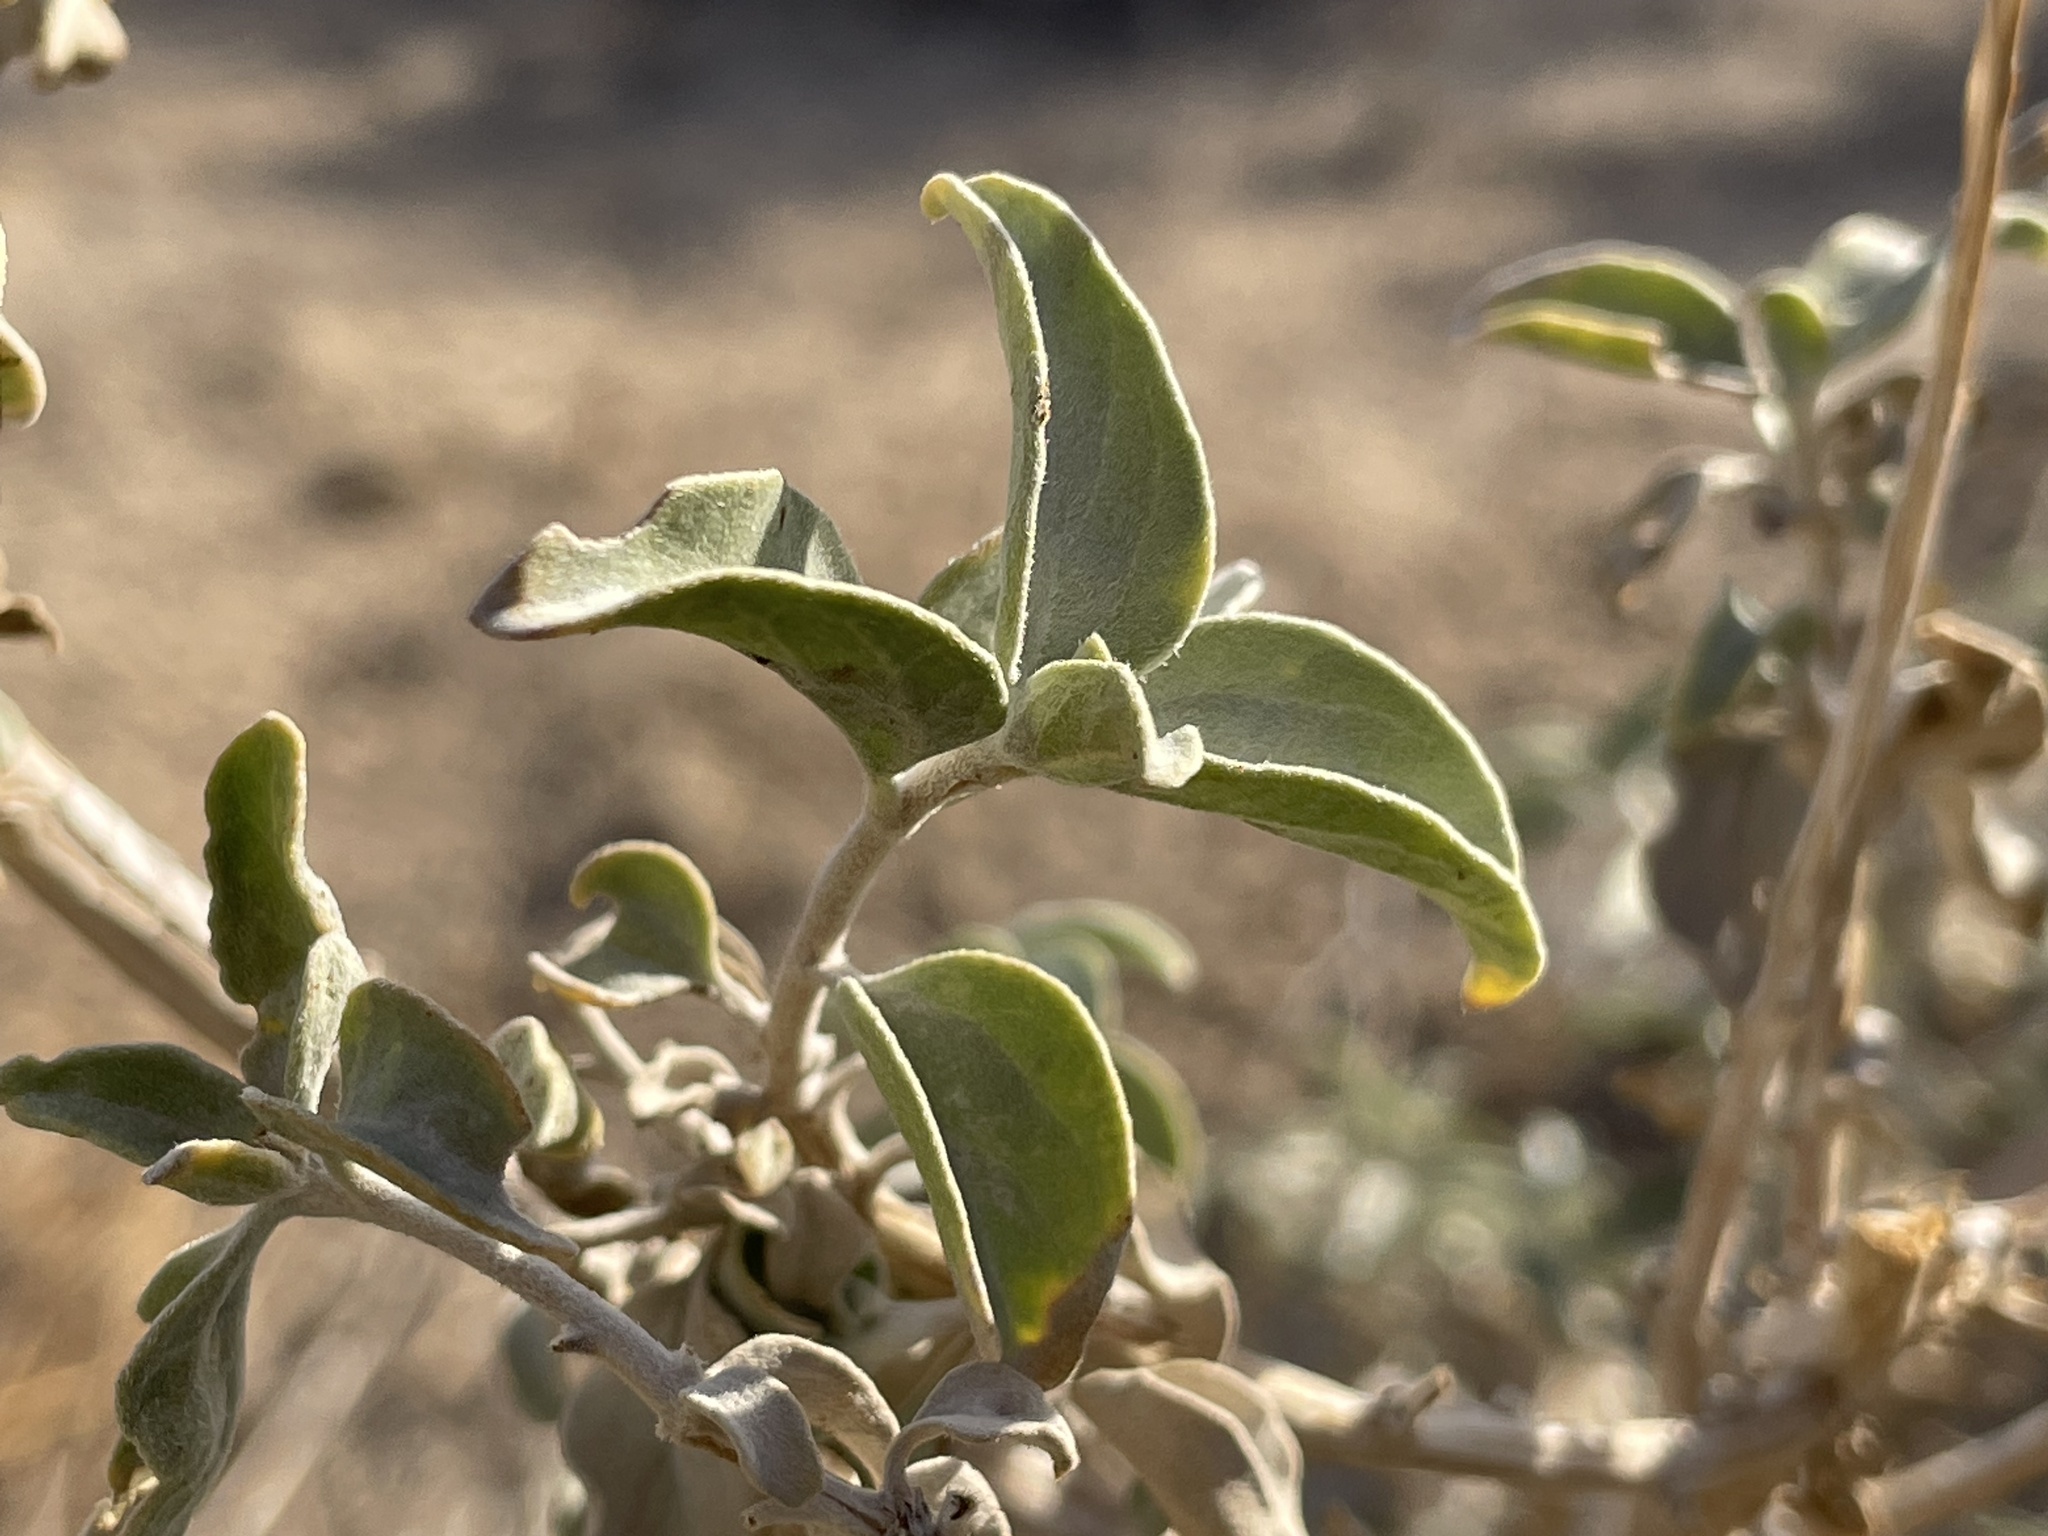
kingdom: Plantae
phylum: Tracheophyta
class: Magnoliopsida
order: Asterales
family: Asteraceae
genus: Encelia
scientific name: Encelia actoni
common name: Acton encelia
